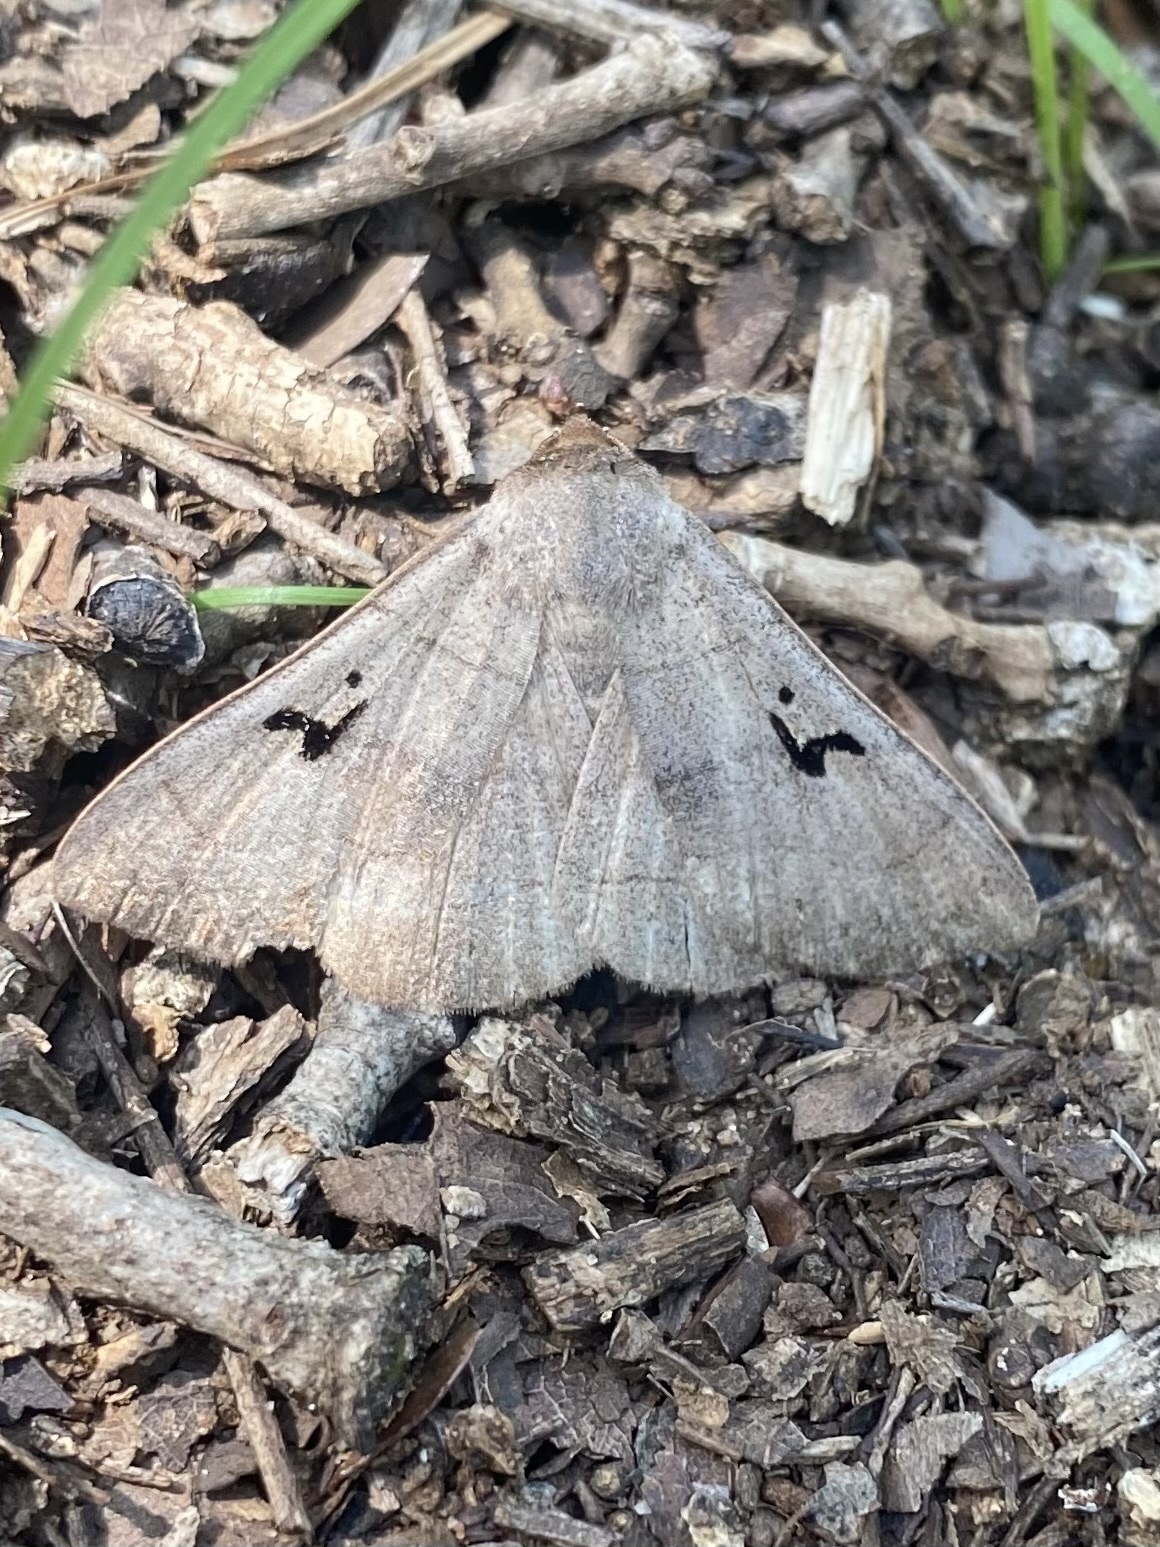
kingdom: Animalia
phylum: Arthropoda
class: Insecta
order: Lepidoptera
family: Erebidae
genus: Panopoda
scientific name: Panopoda carneicosta
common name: Brown panopoda moth
